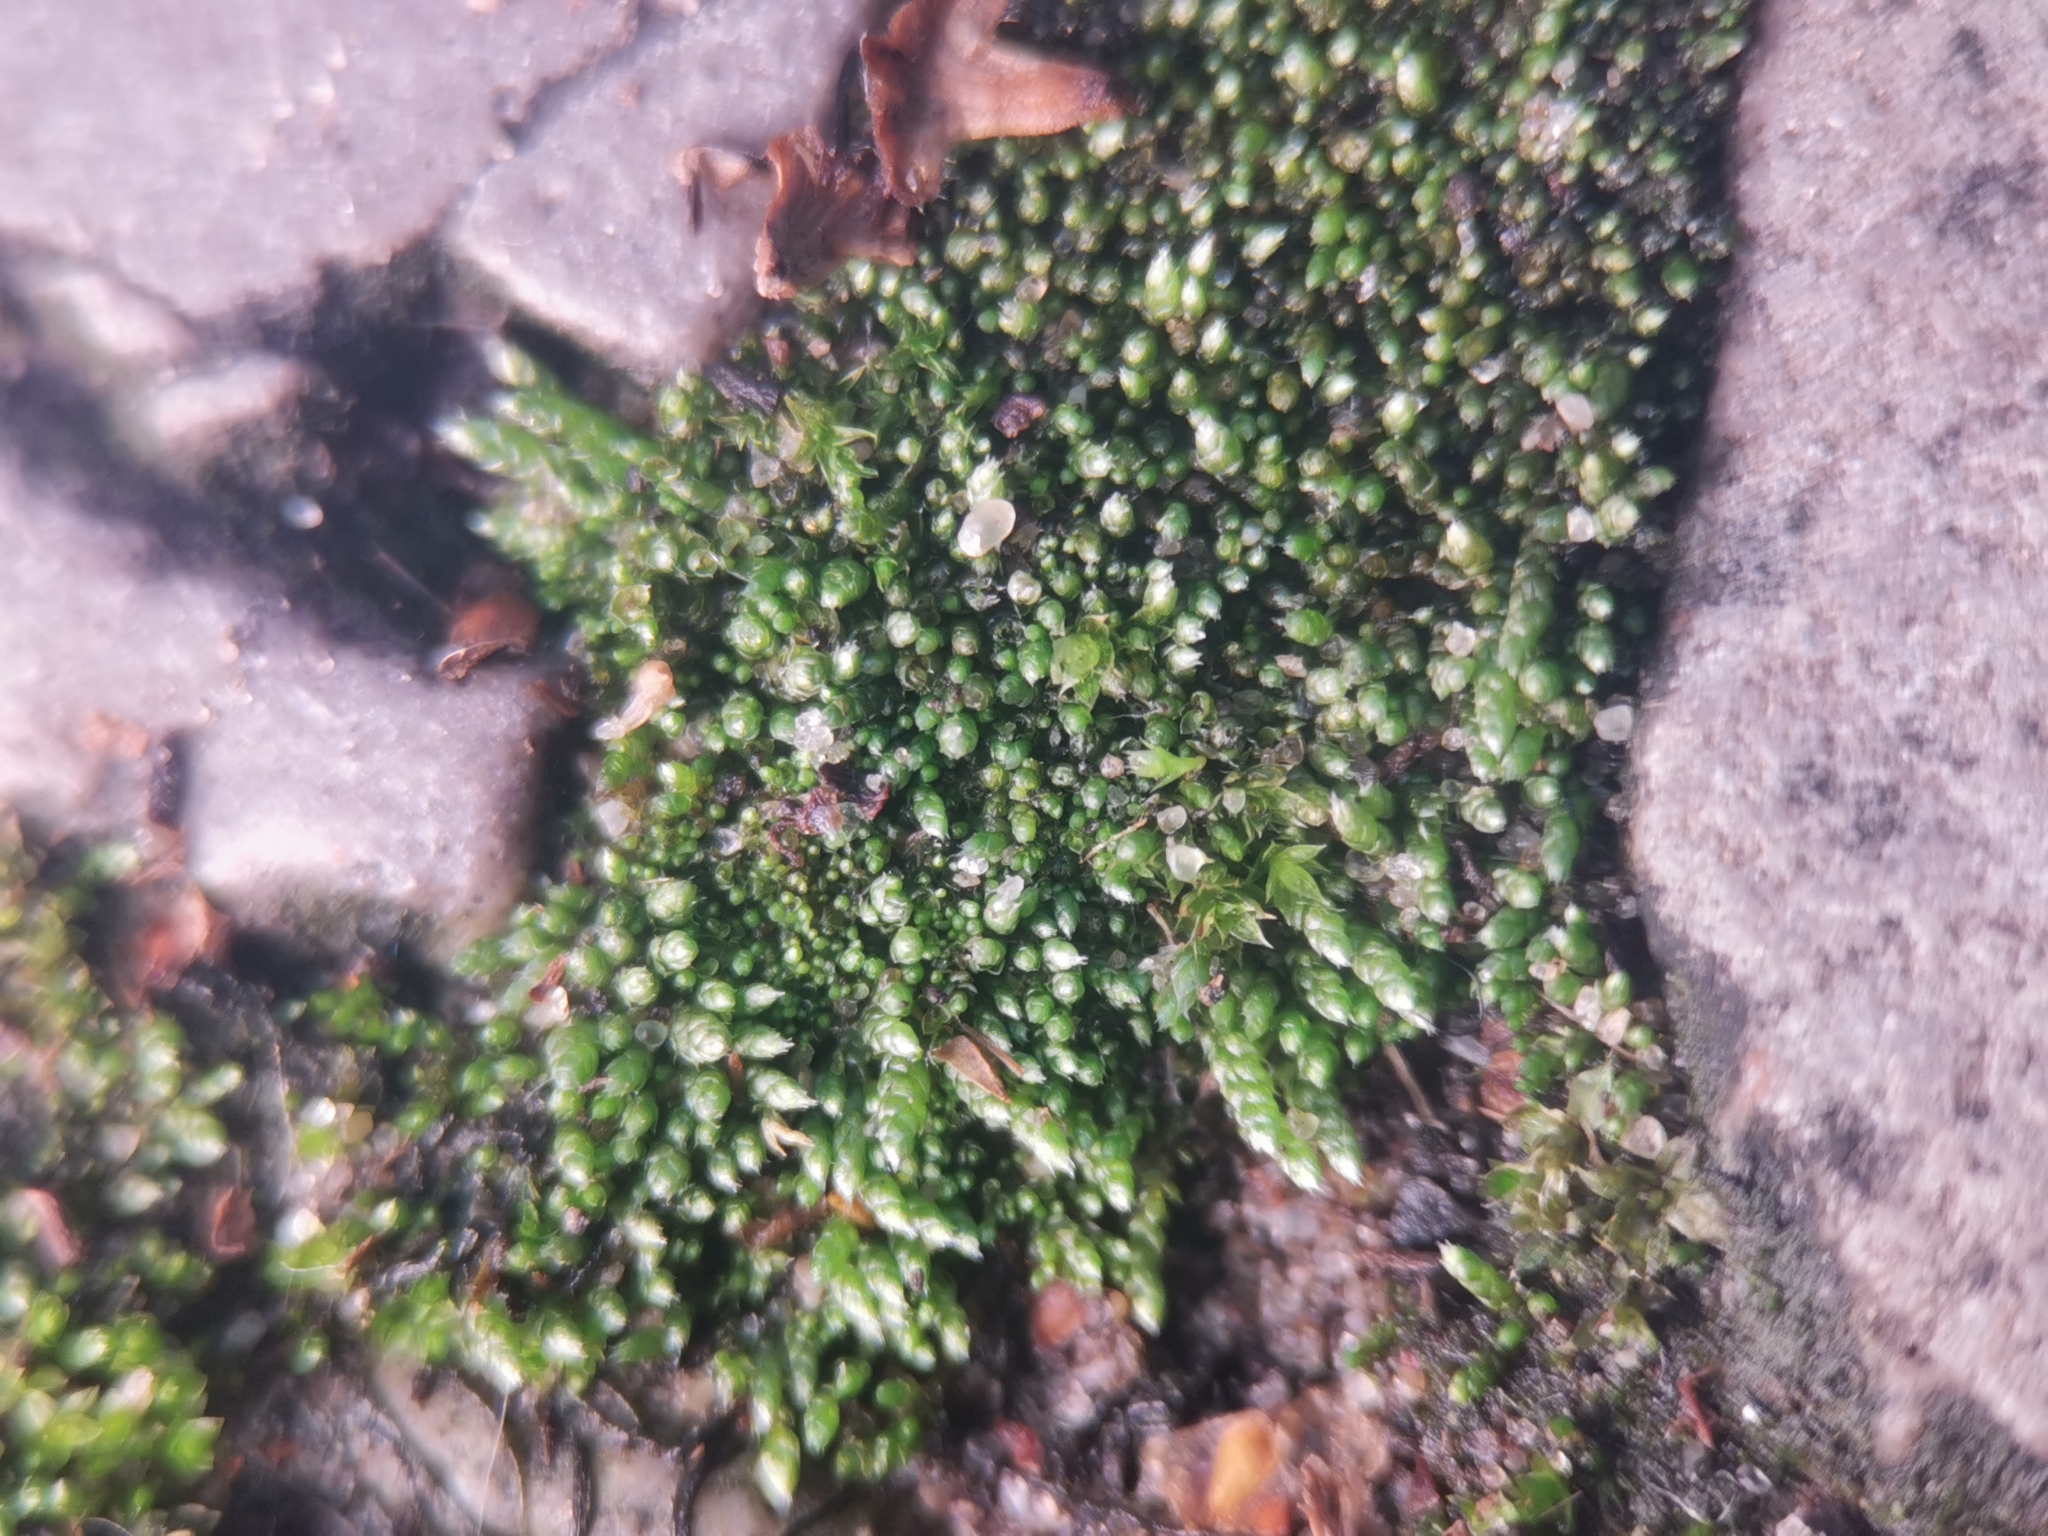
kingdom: Plantae
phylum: Bryophyta
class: Bryopsida
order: Bryales
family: Bryaceae
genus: Bryum
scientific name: Bryum argenteum
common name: Silver-moss
